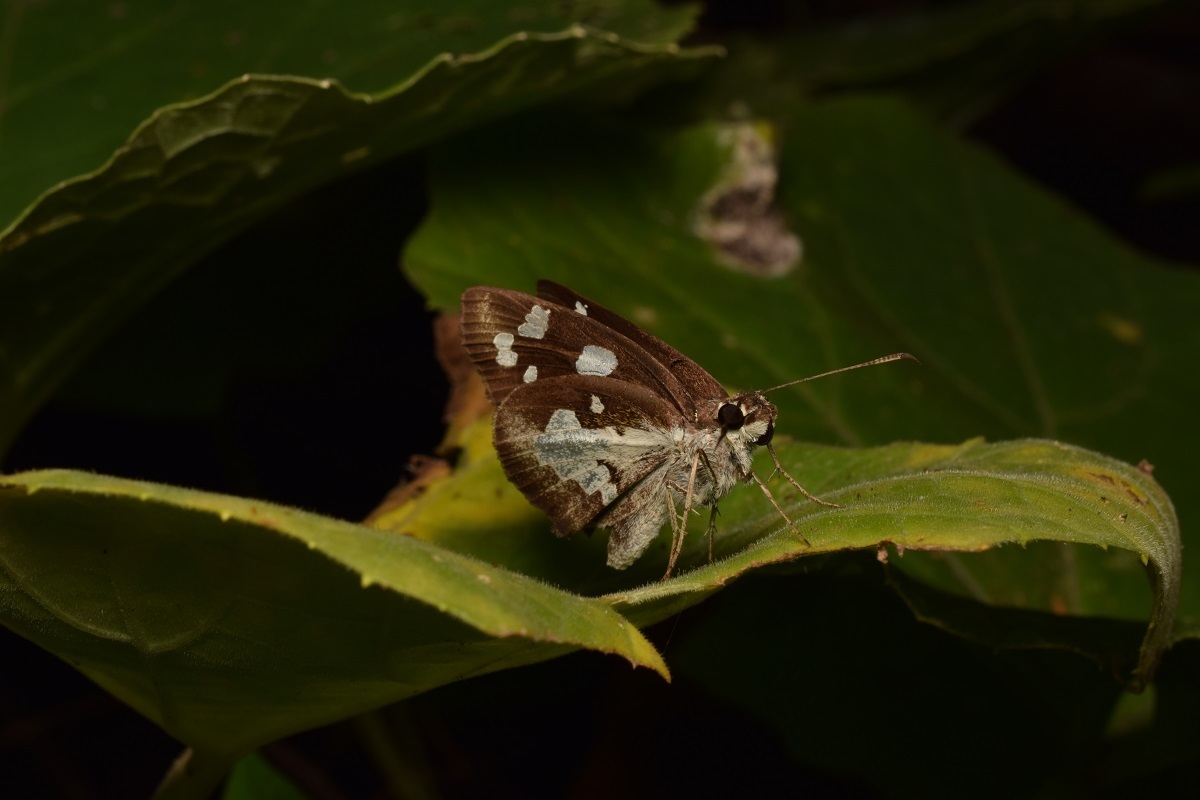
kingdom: Animalia
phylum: Arthropoda
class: Insecta
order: Lepidoptera
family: Hesperiidae
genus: Udaspes
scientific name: Udaspes folus
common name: Grass demon
